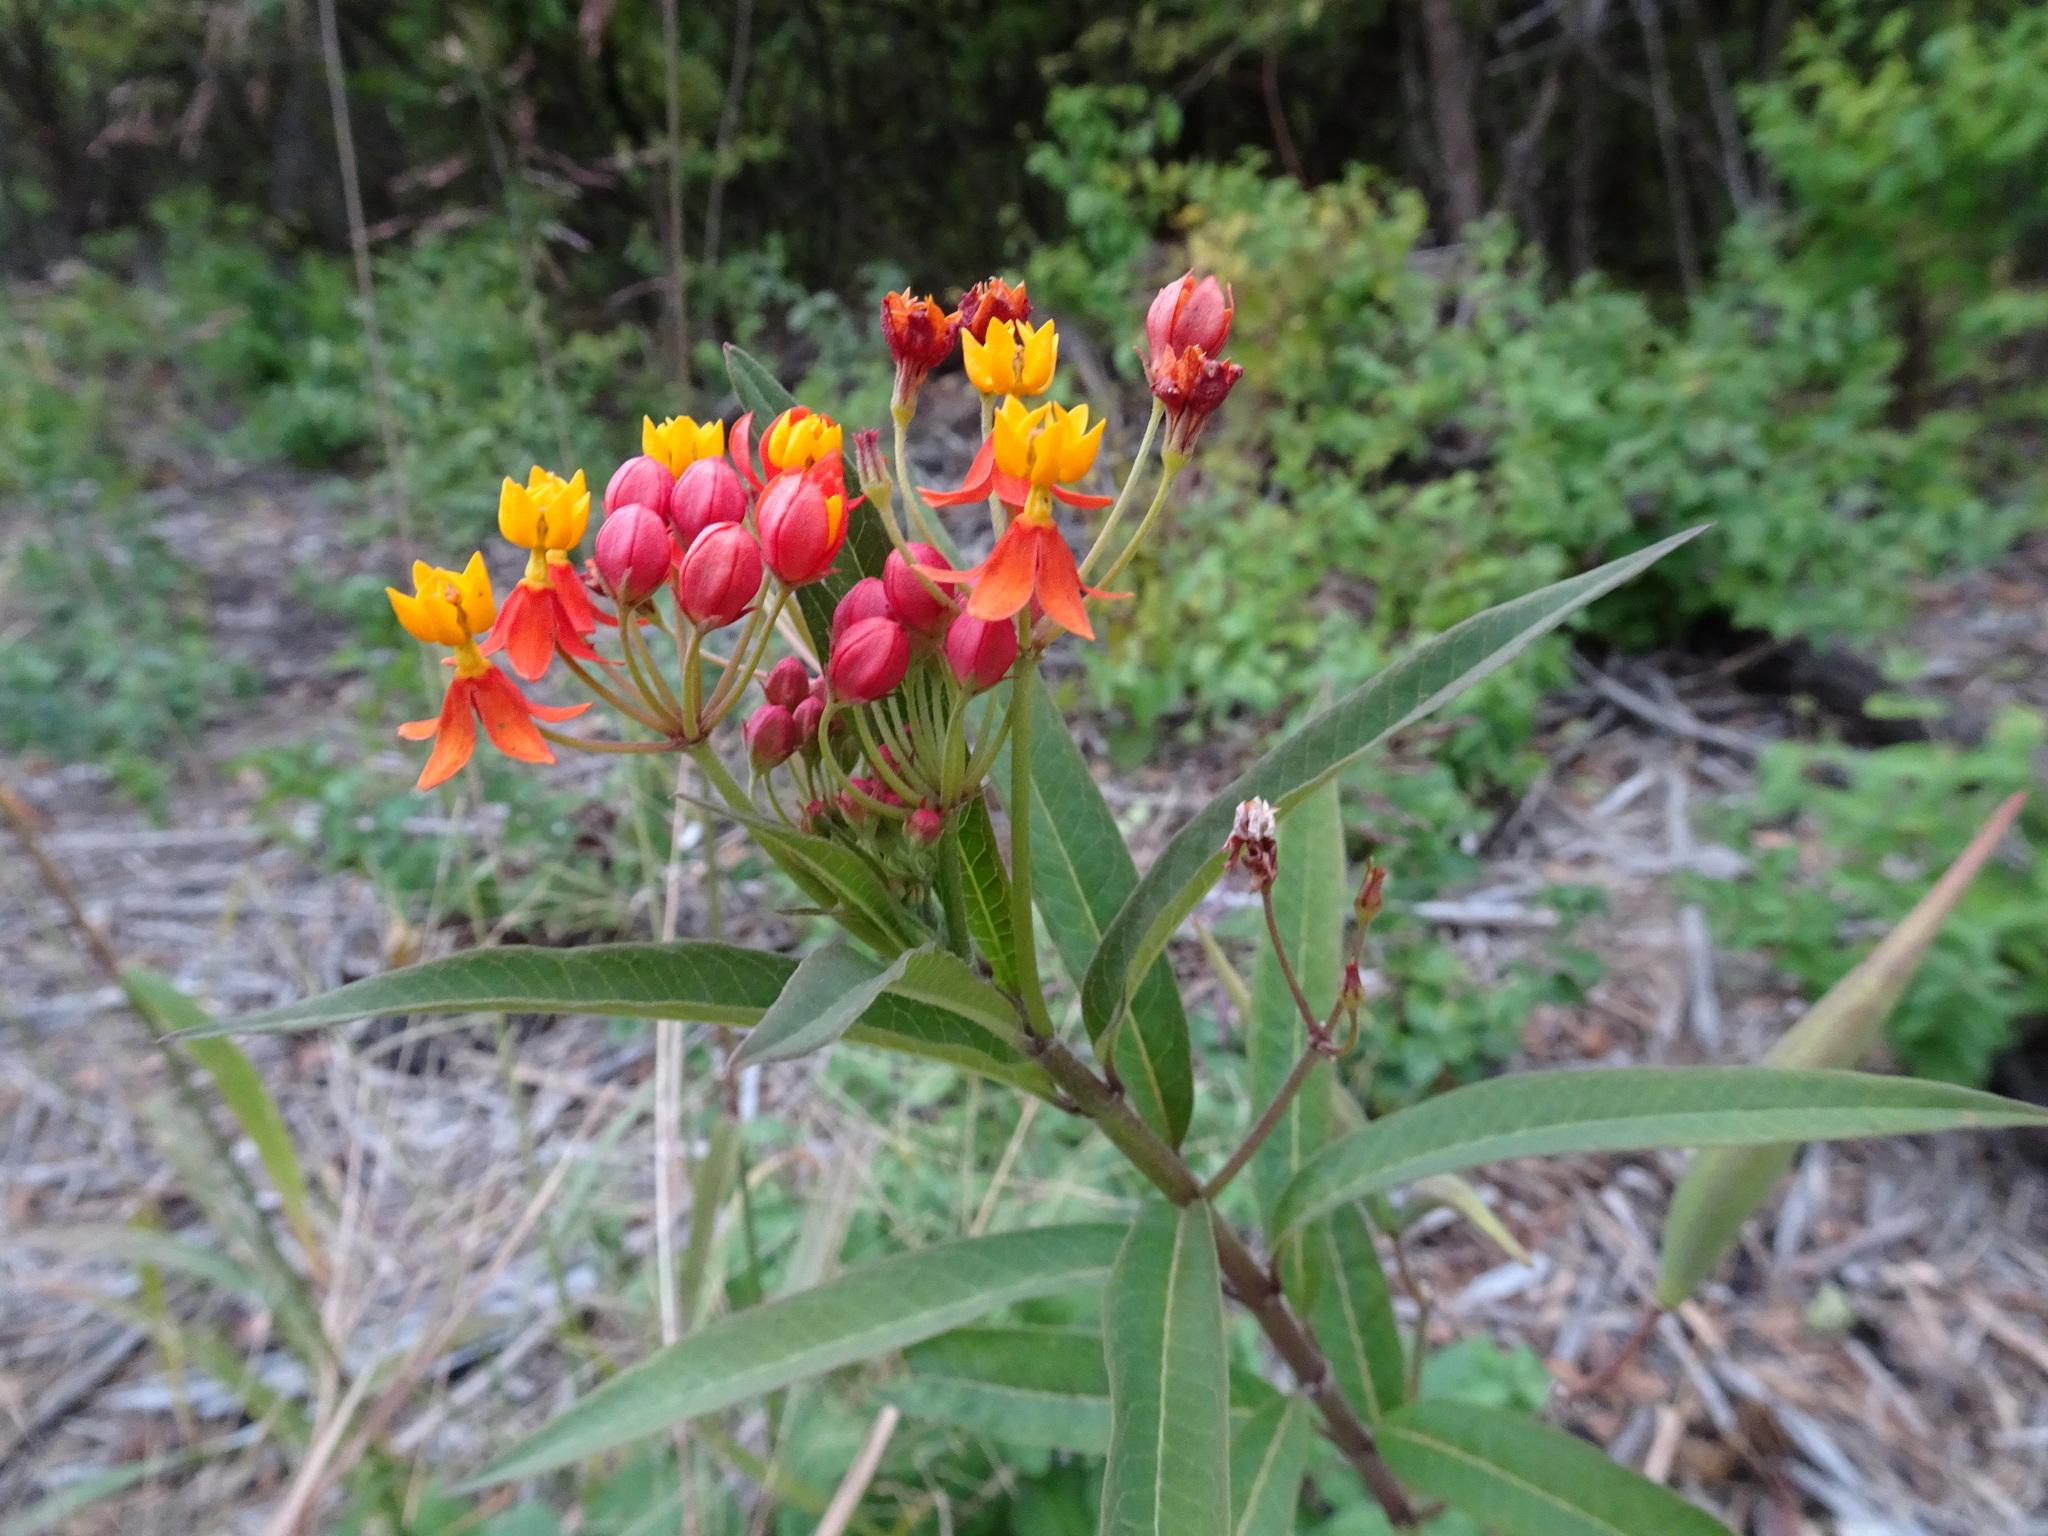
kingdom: Plantae
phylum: Tracheophyta
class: Magnoliopsida
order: Gentianales
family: Apocynaceae
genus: Asclepias
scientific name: Asclepias curassavica
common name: Bloodflower
